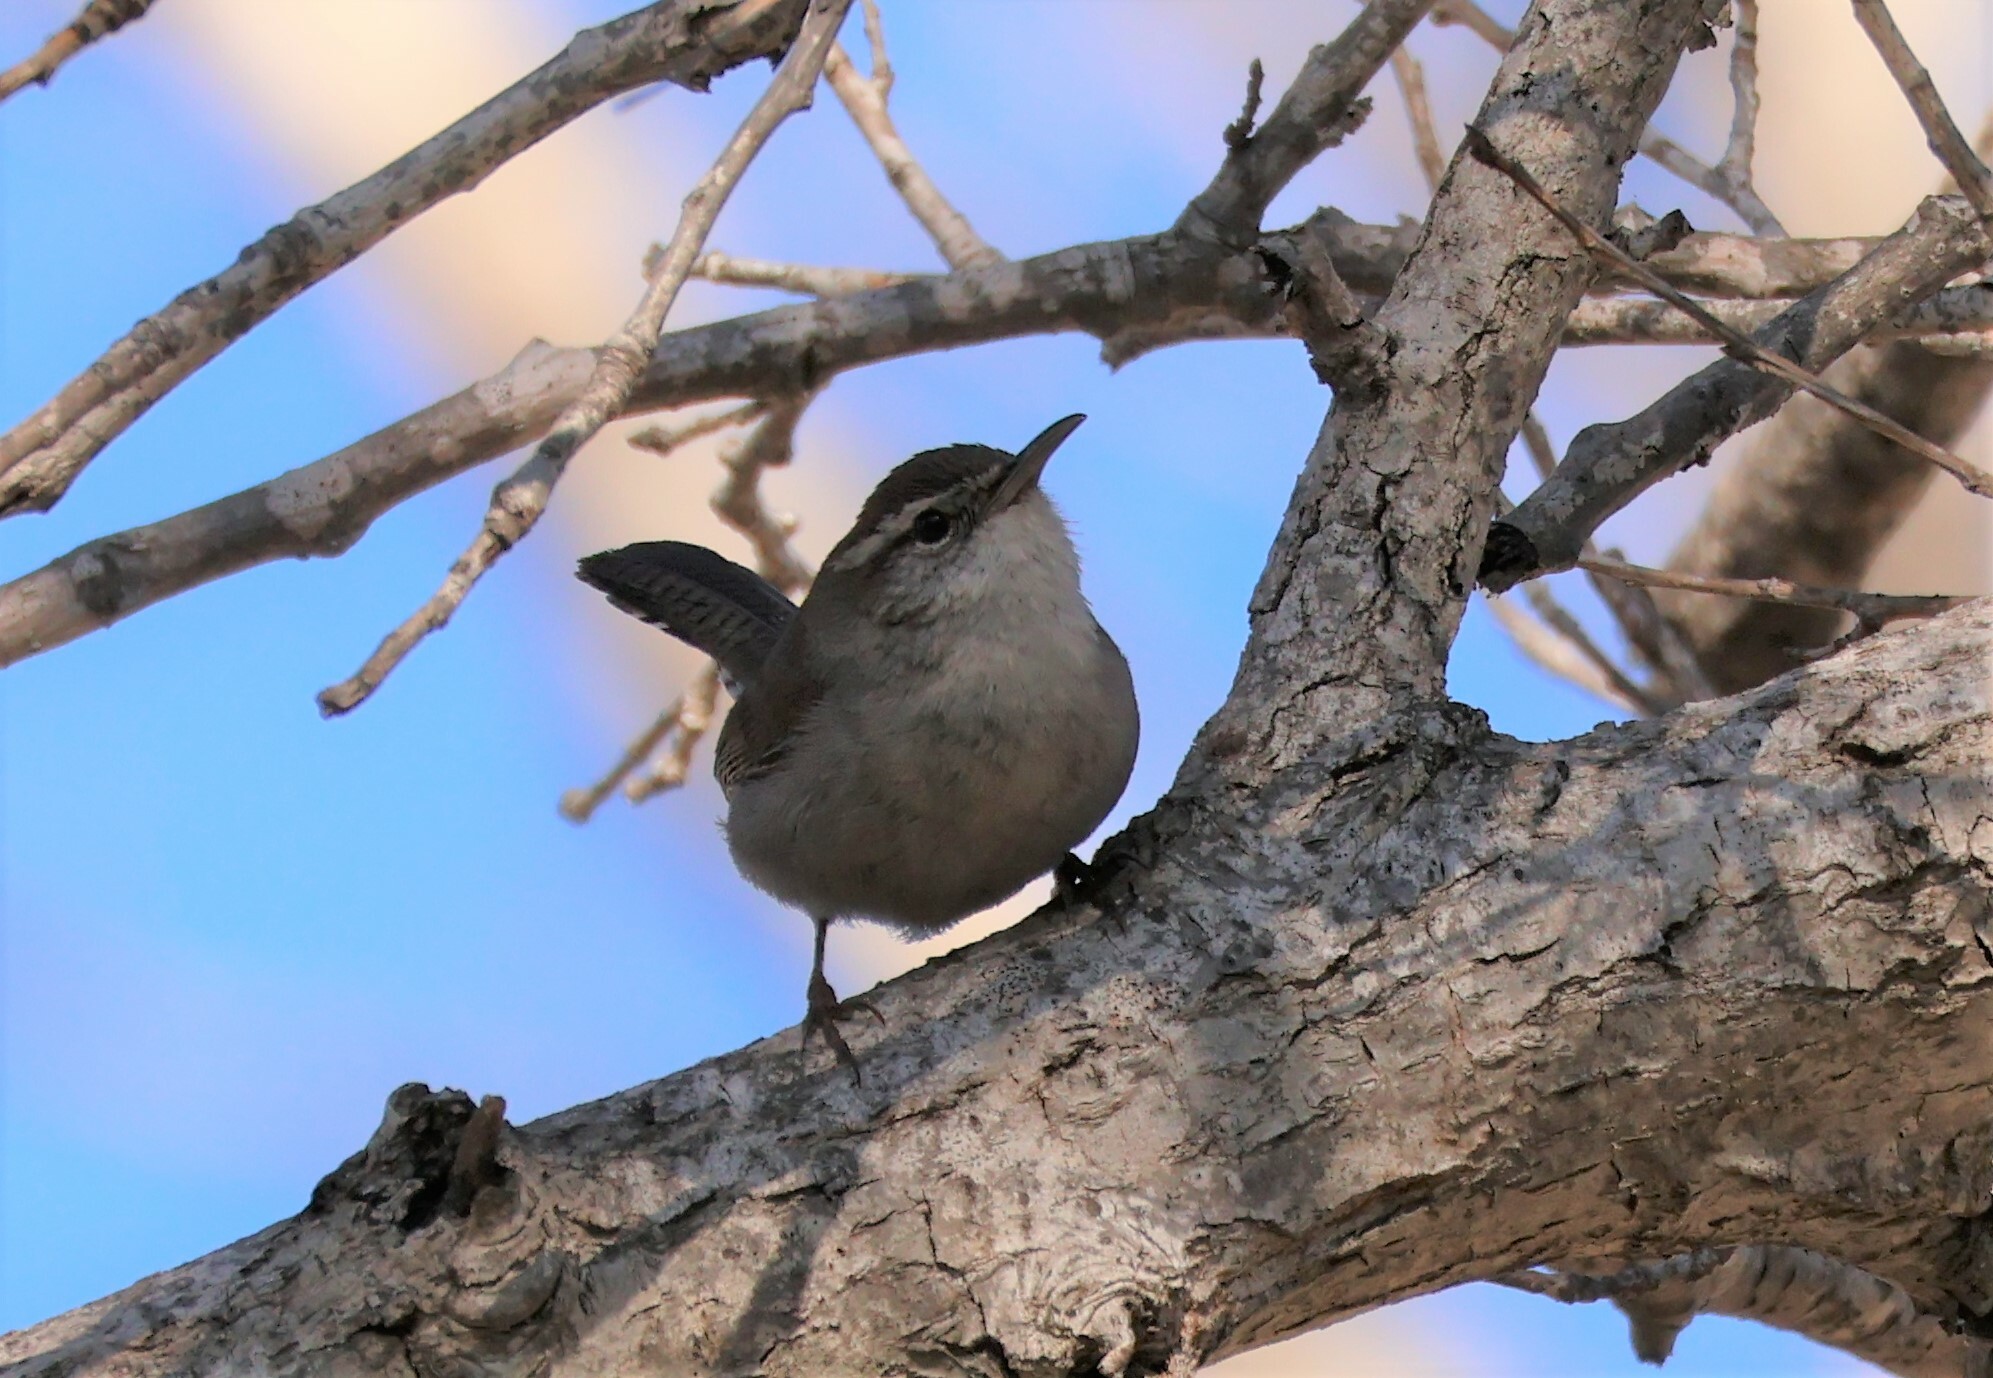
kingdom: Animalia
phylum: Chordata
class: Aves
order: Passeriformes
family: Troglodytidae
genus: Thryomanes
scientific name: Thryomanes bewickii
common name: Bewick's wren
